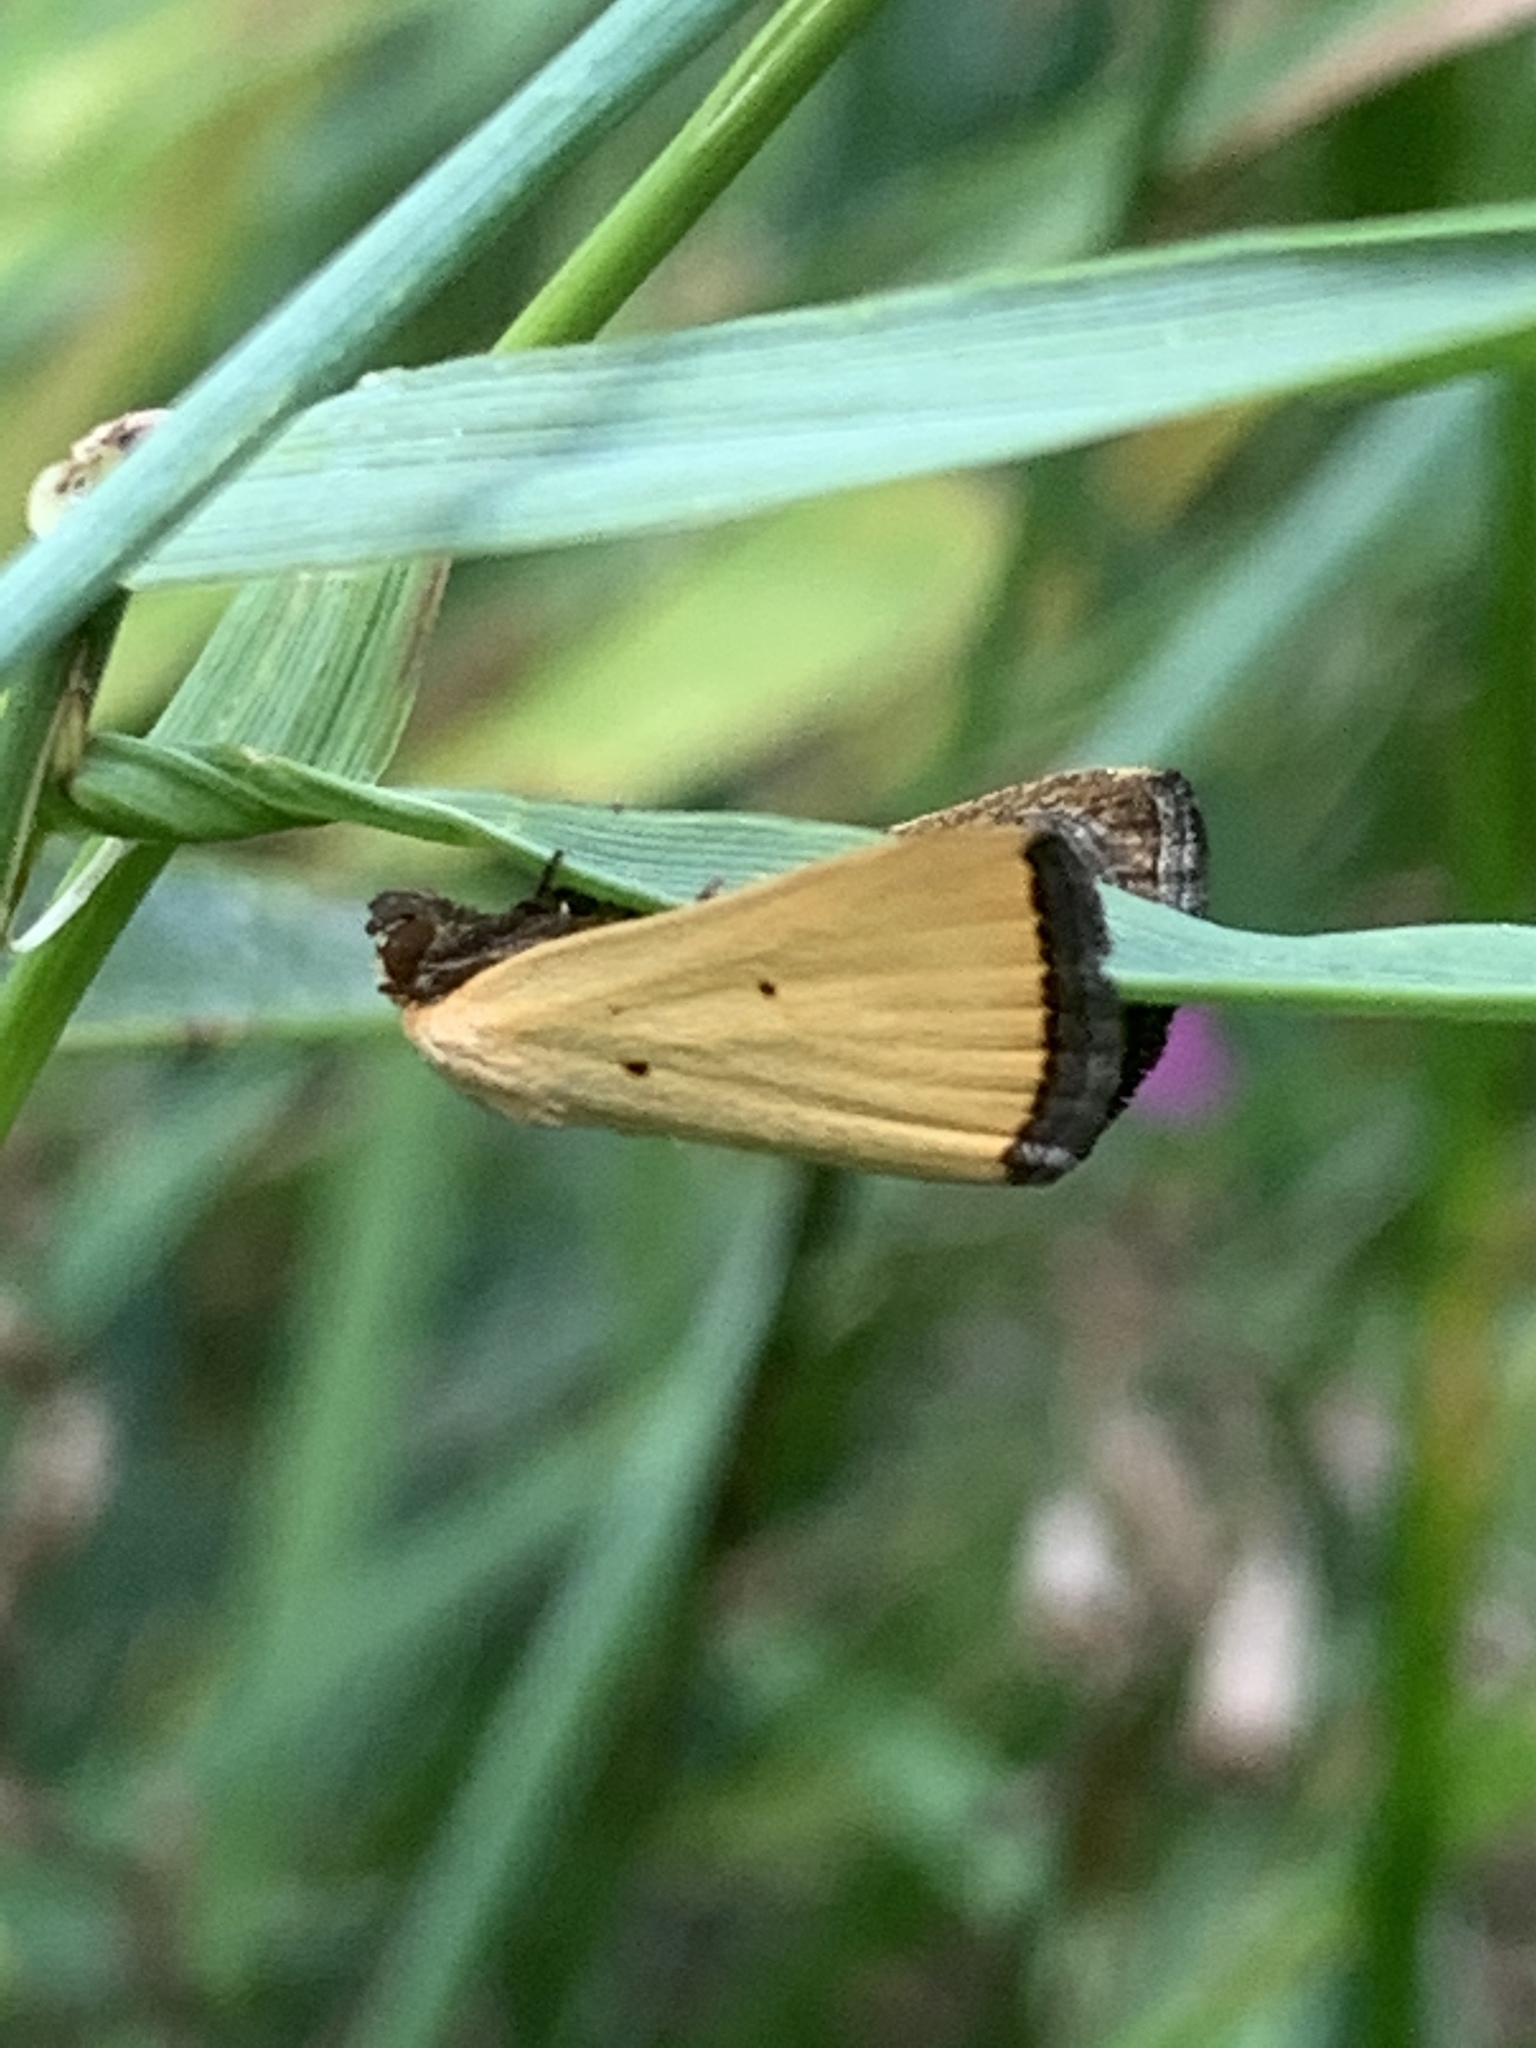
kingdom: Animalia
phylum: Arthropoda
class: Insecta
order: Lepidoptera
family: Noctuidae
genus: Marimatha
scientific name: Marimatha nigrofimbria
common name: Black-bordered lemon moth
